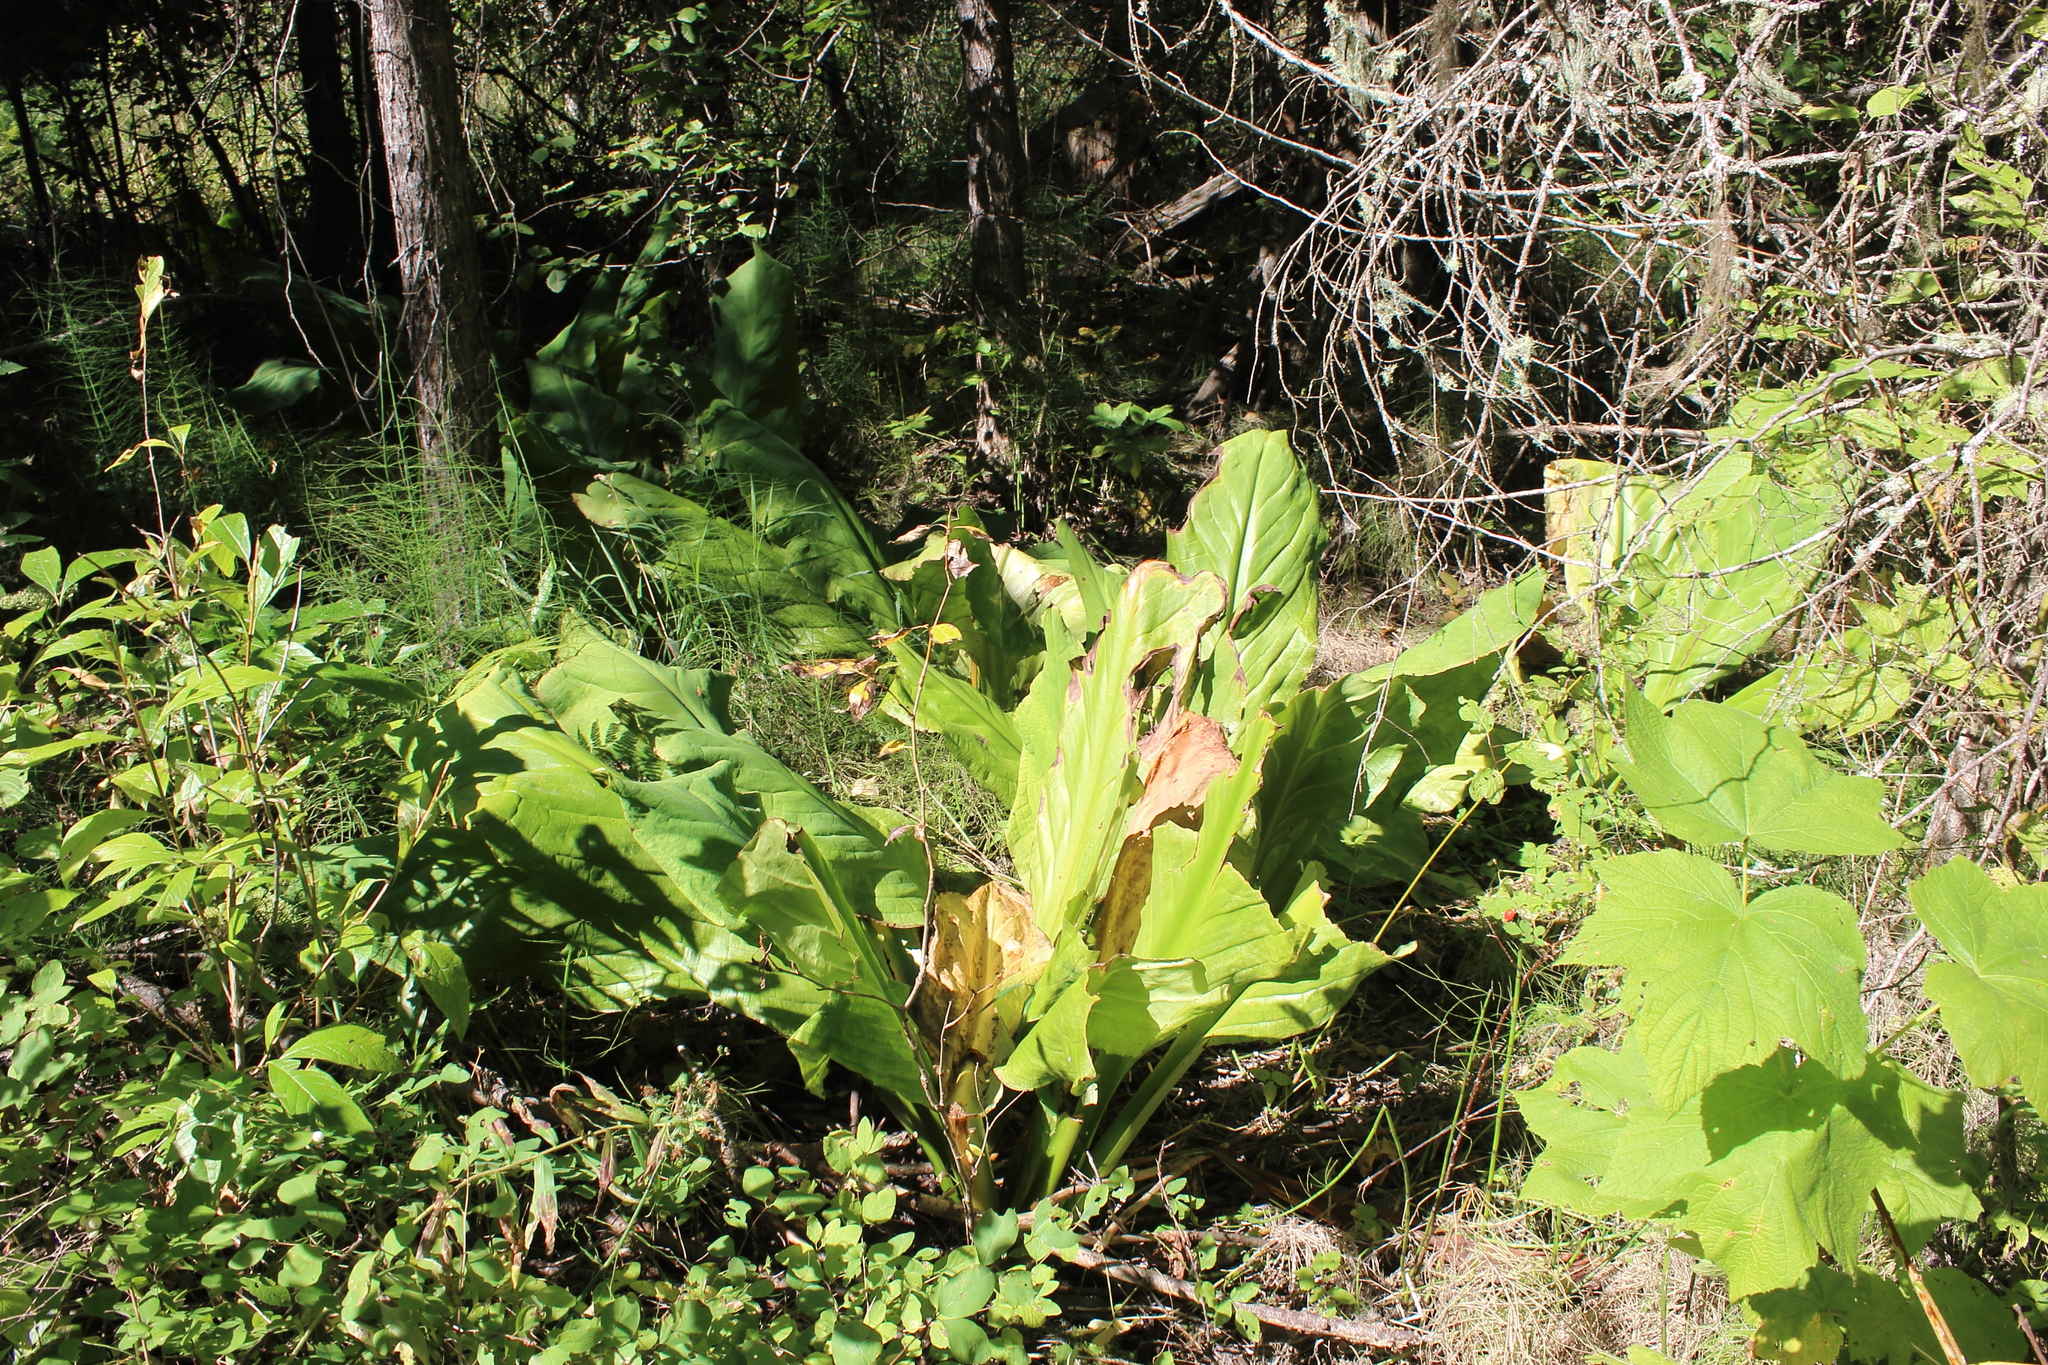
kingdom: Plantae
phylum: Tracheophyta
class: Liliopsida
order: Alismatales
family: Araceae
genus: Lysichiton
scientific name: Lysichiton americanus
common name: American skunk cabbage
